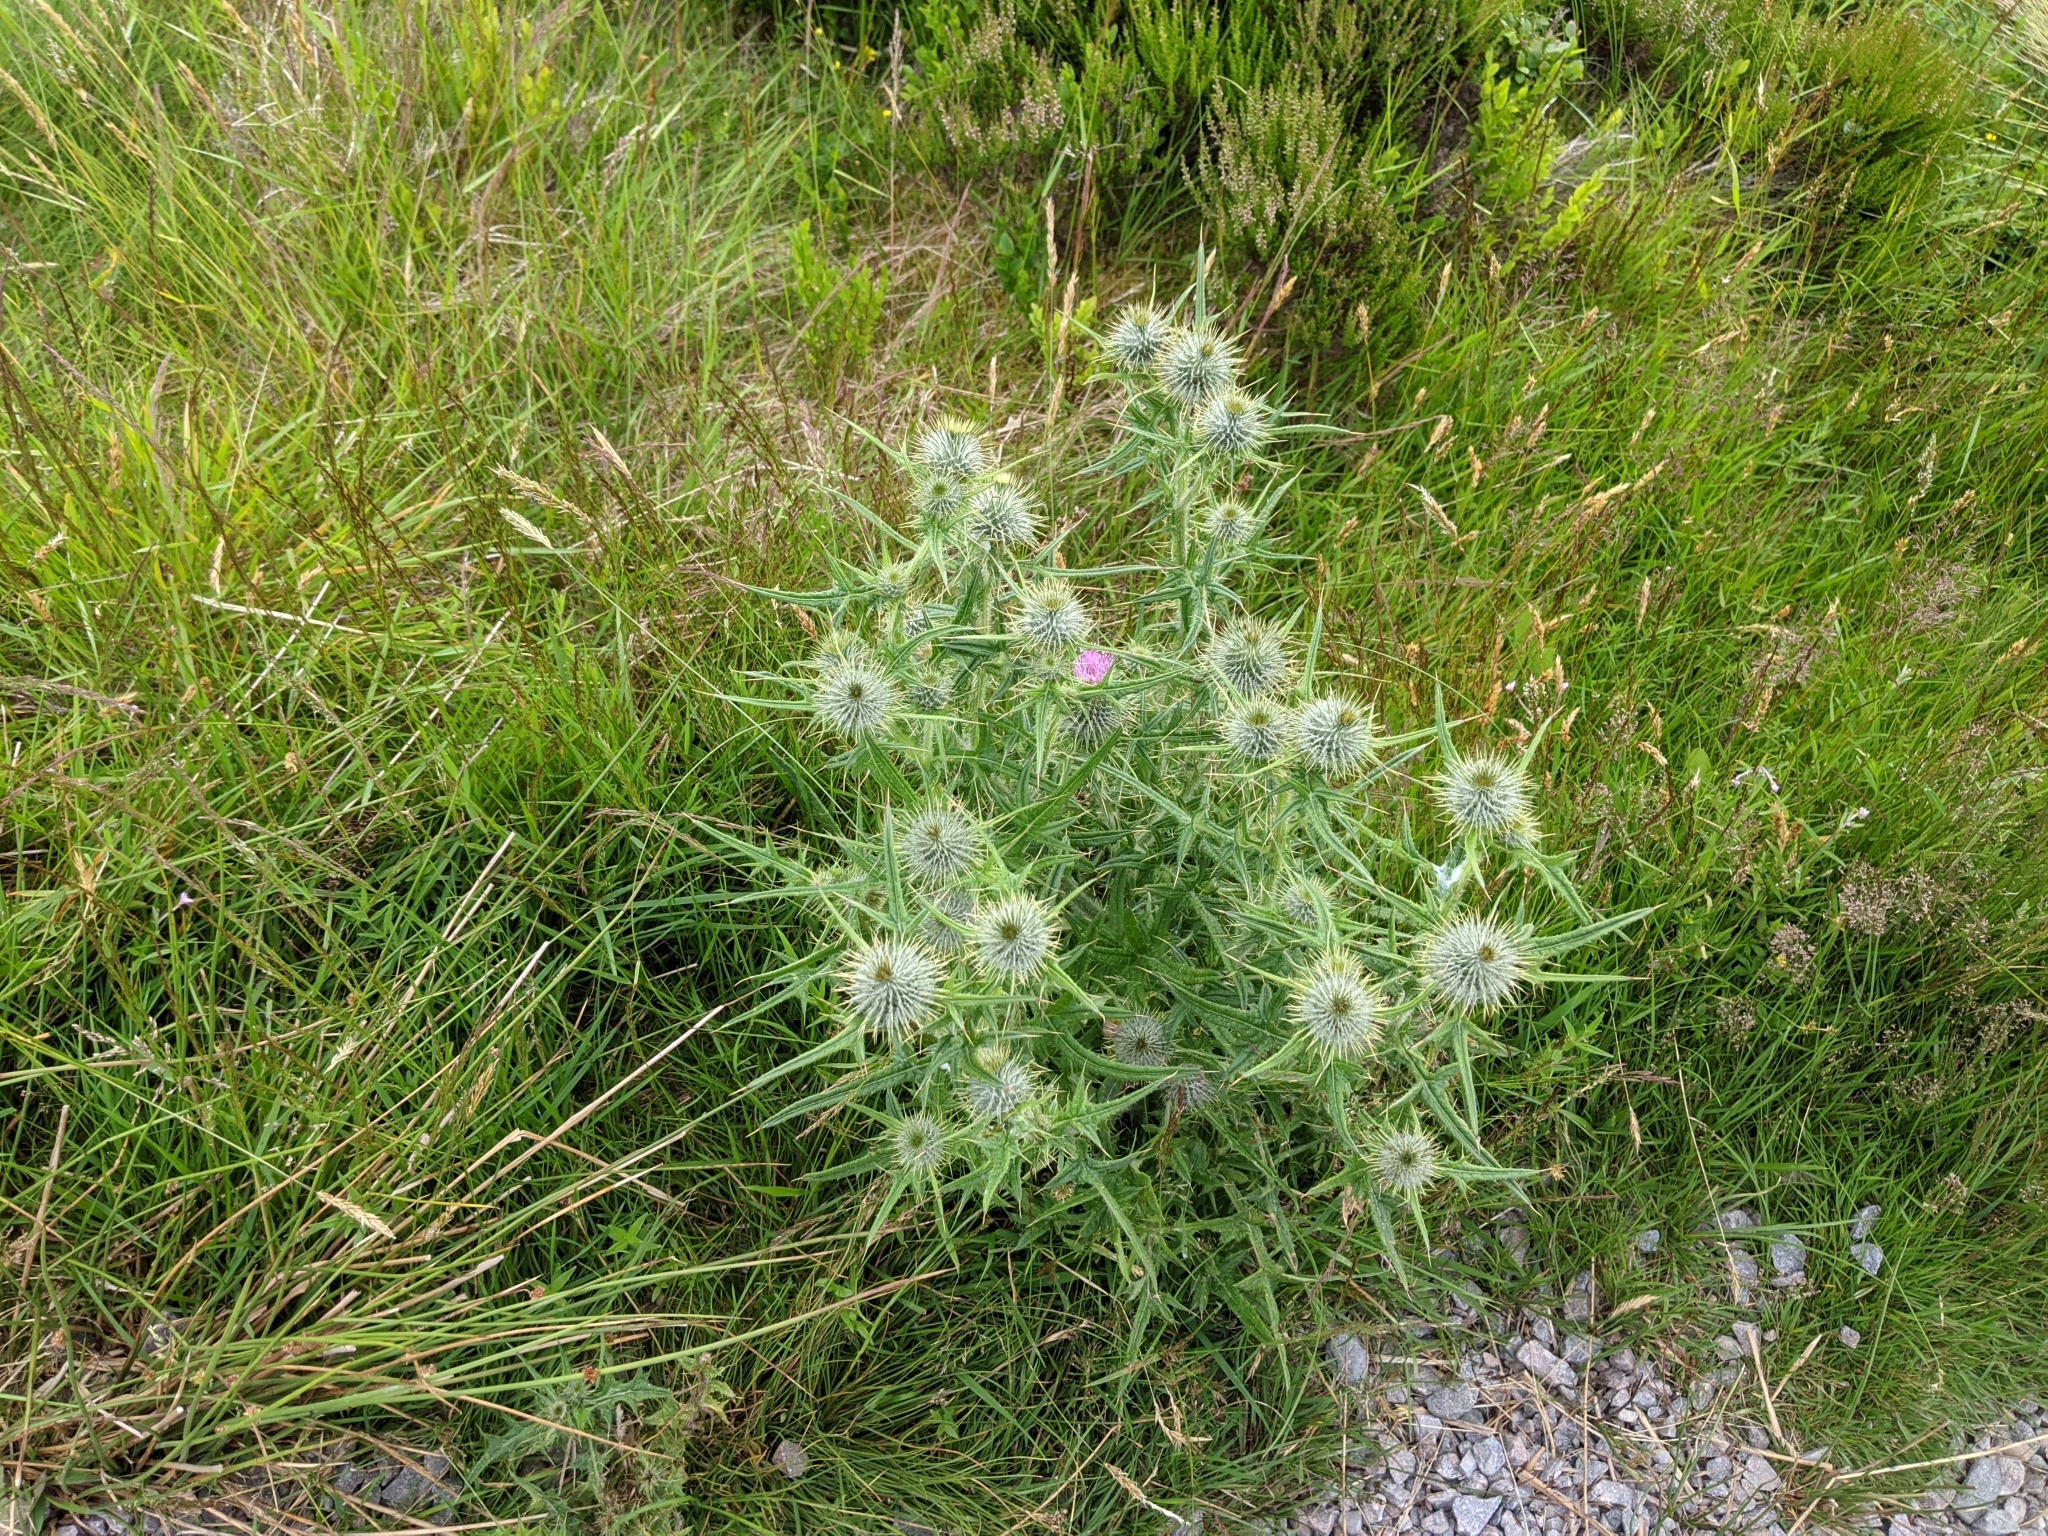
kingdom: Plantae
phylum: Tracheophyta
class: Magnoliopsida
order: Asterales
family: Asteraceae
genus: Cirsium
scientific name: Cirsium vulgare
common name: Bull thistle
